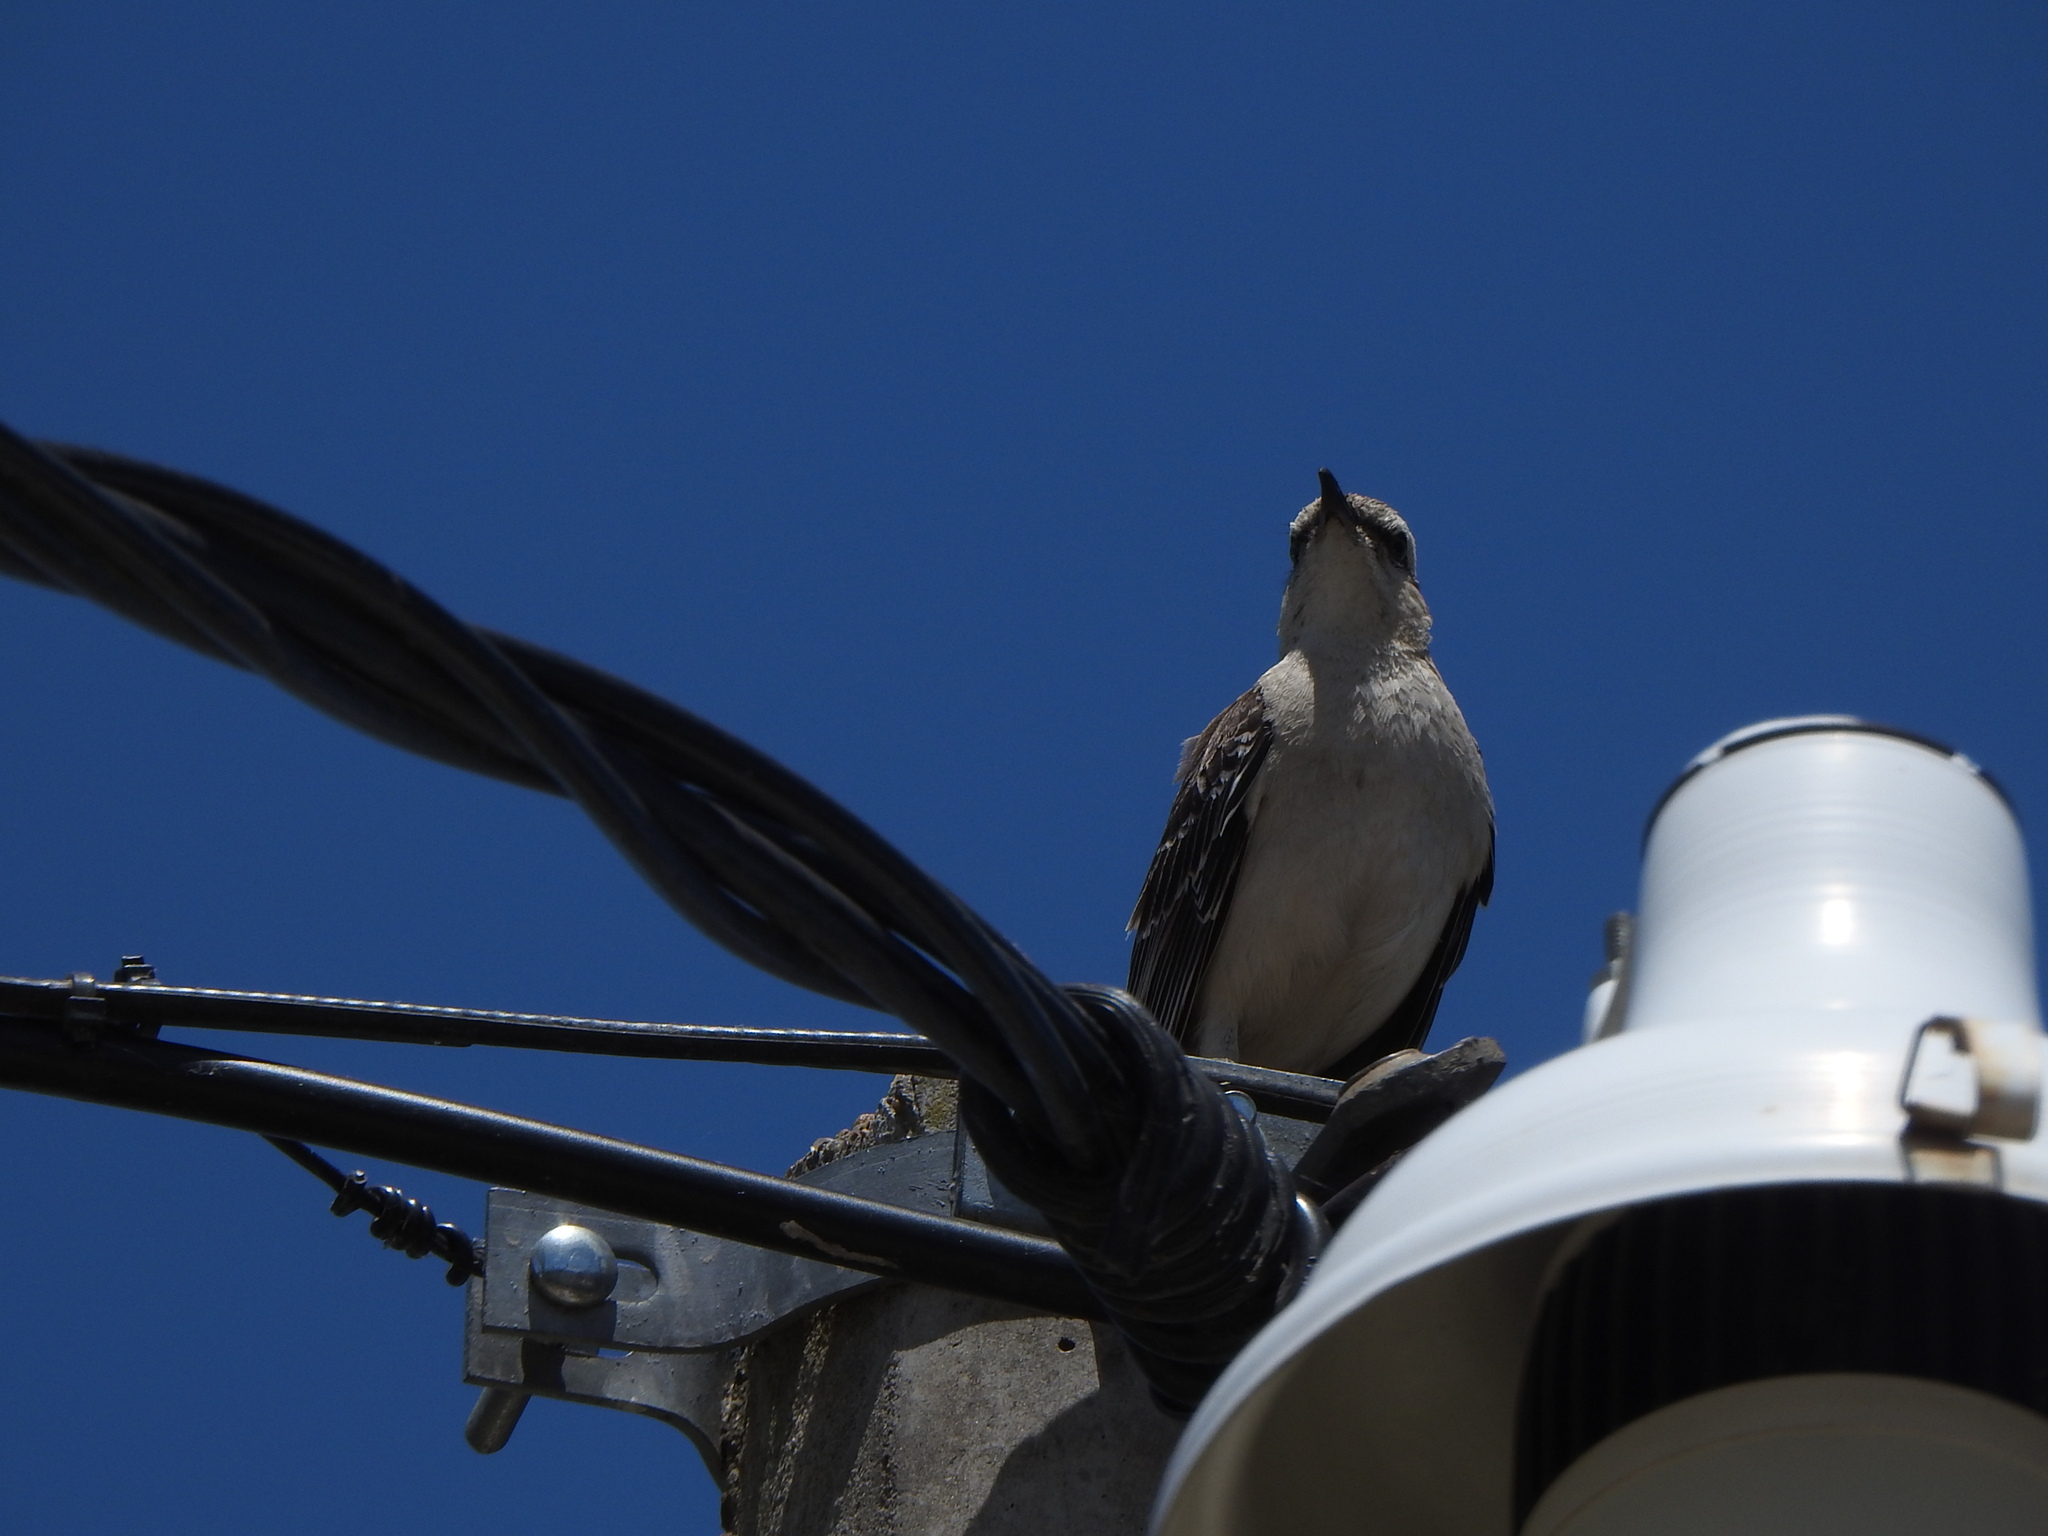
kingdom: Animalia
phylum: Chordata
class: Aves
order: Passeriformes
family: Mimidae
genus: Mimus
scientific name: Mimus saturninus
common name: Chalk-browed mockingbird
